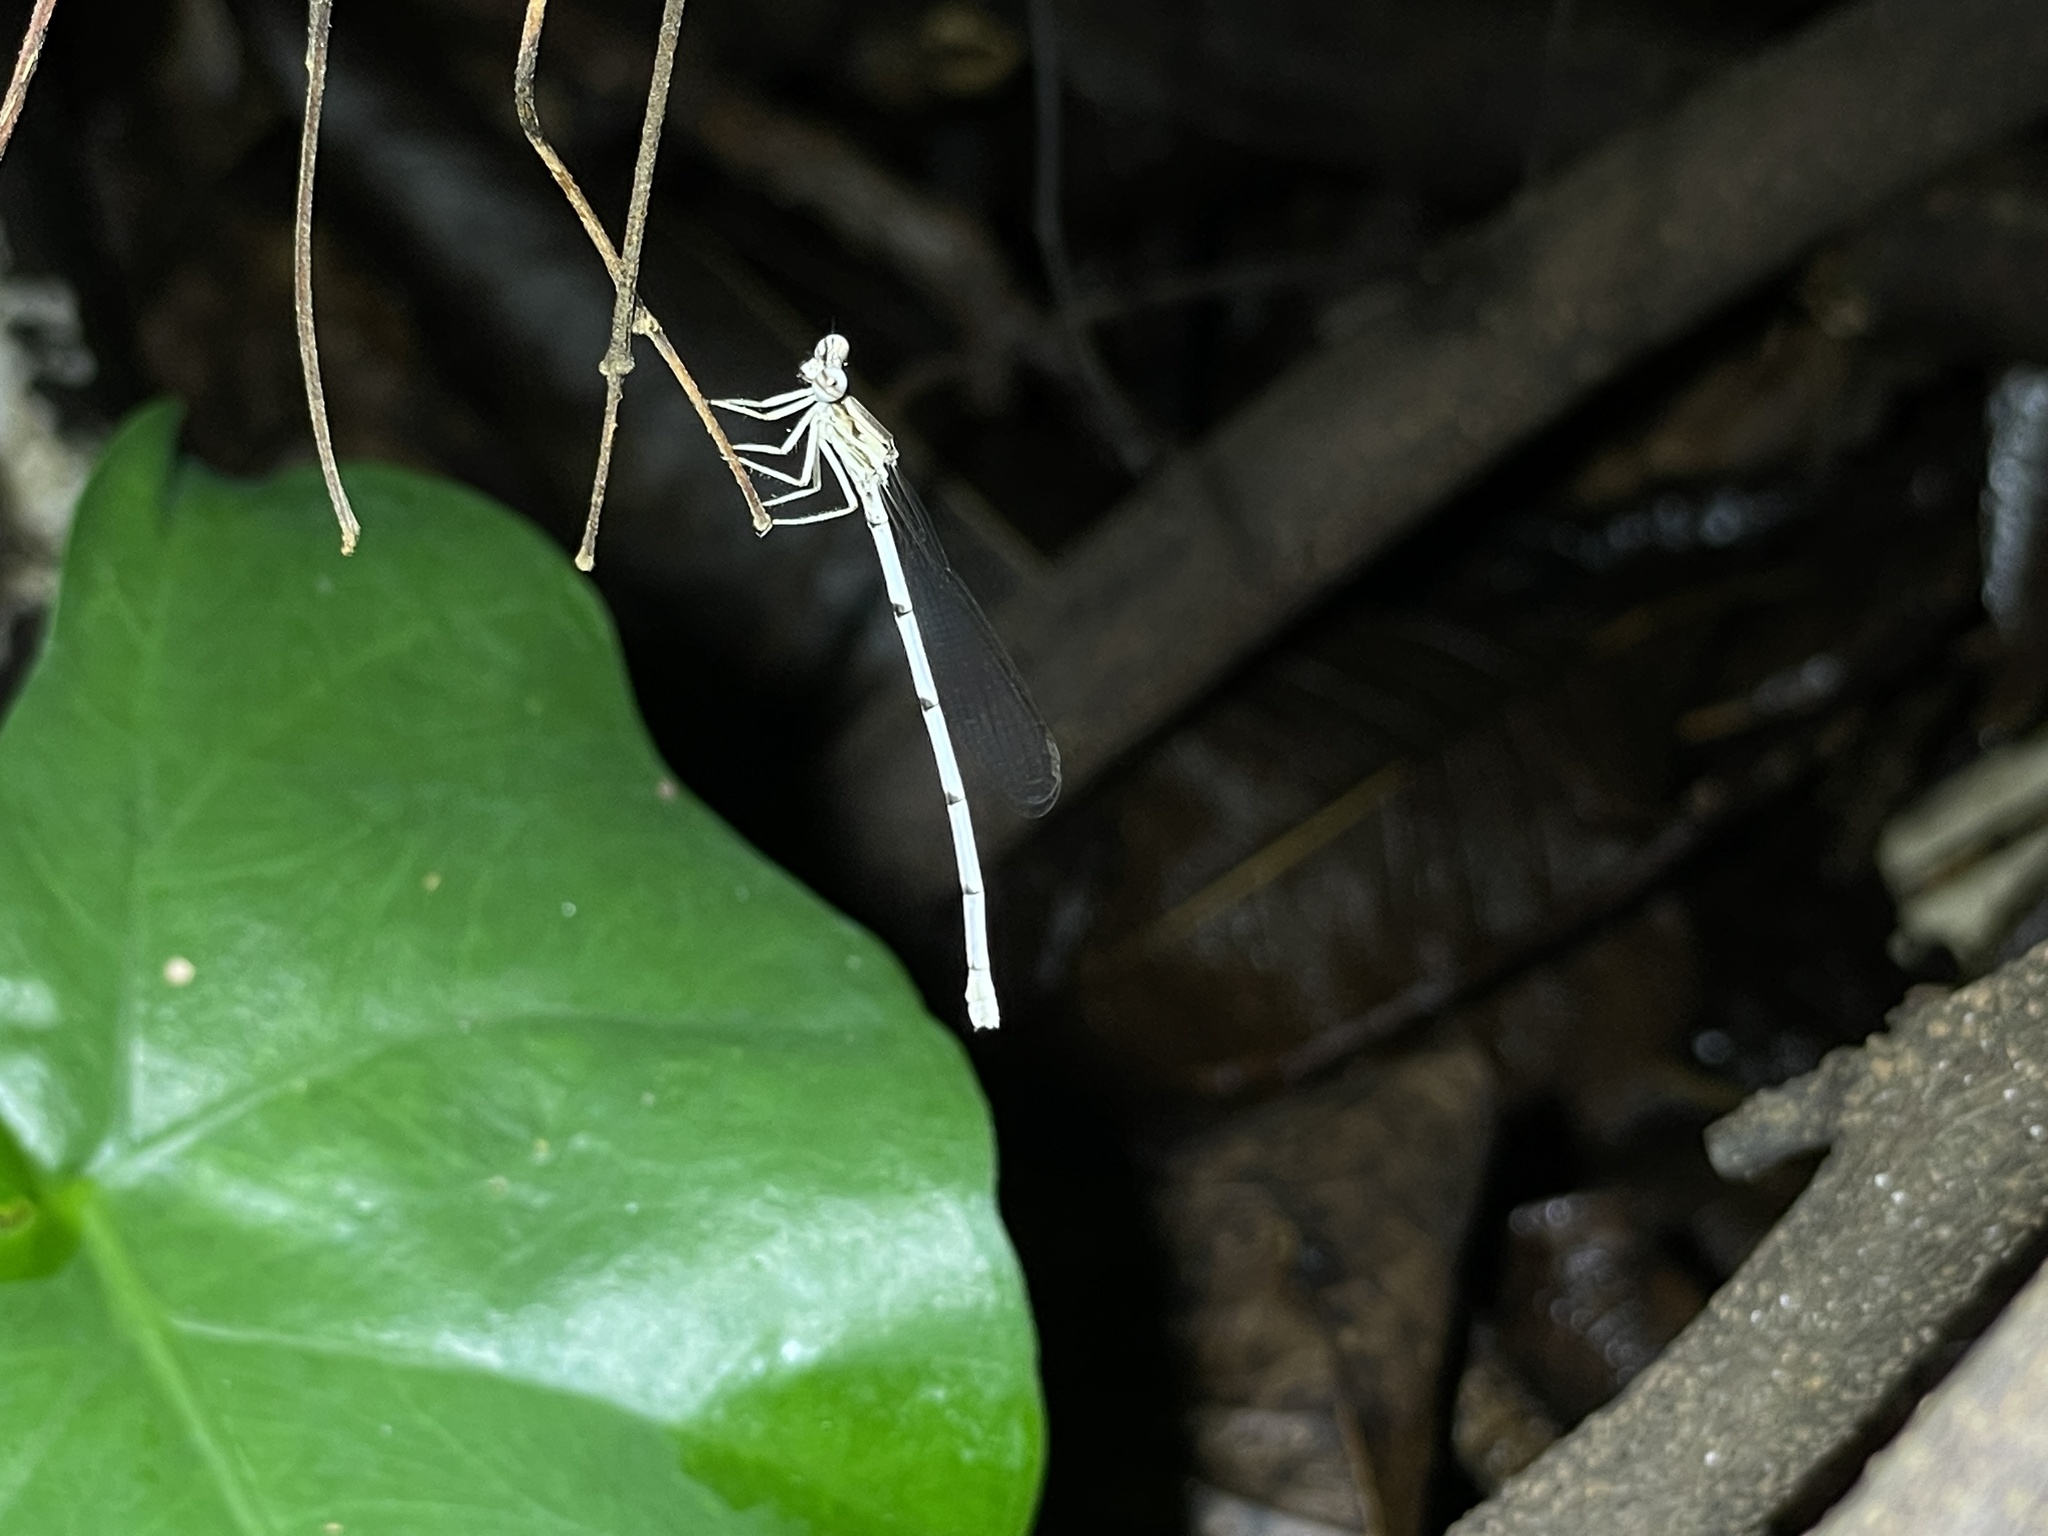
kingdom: Animalia
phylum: Arthropoda
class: Insecta
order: Odonata
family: Platycnemididae
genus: Copera
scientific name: Copera marginipes
